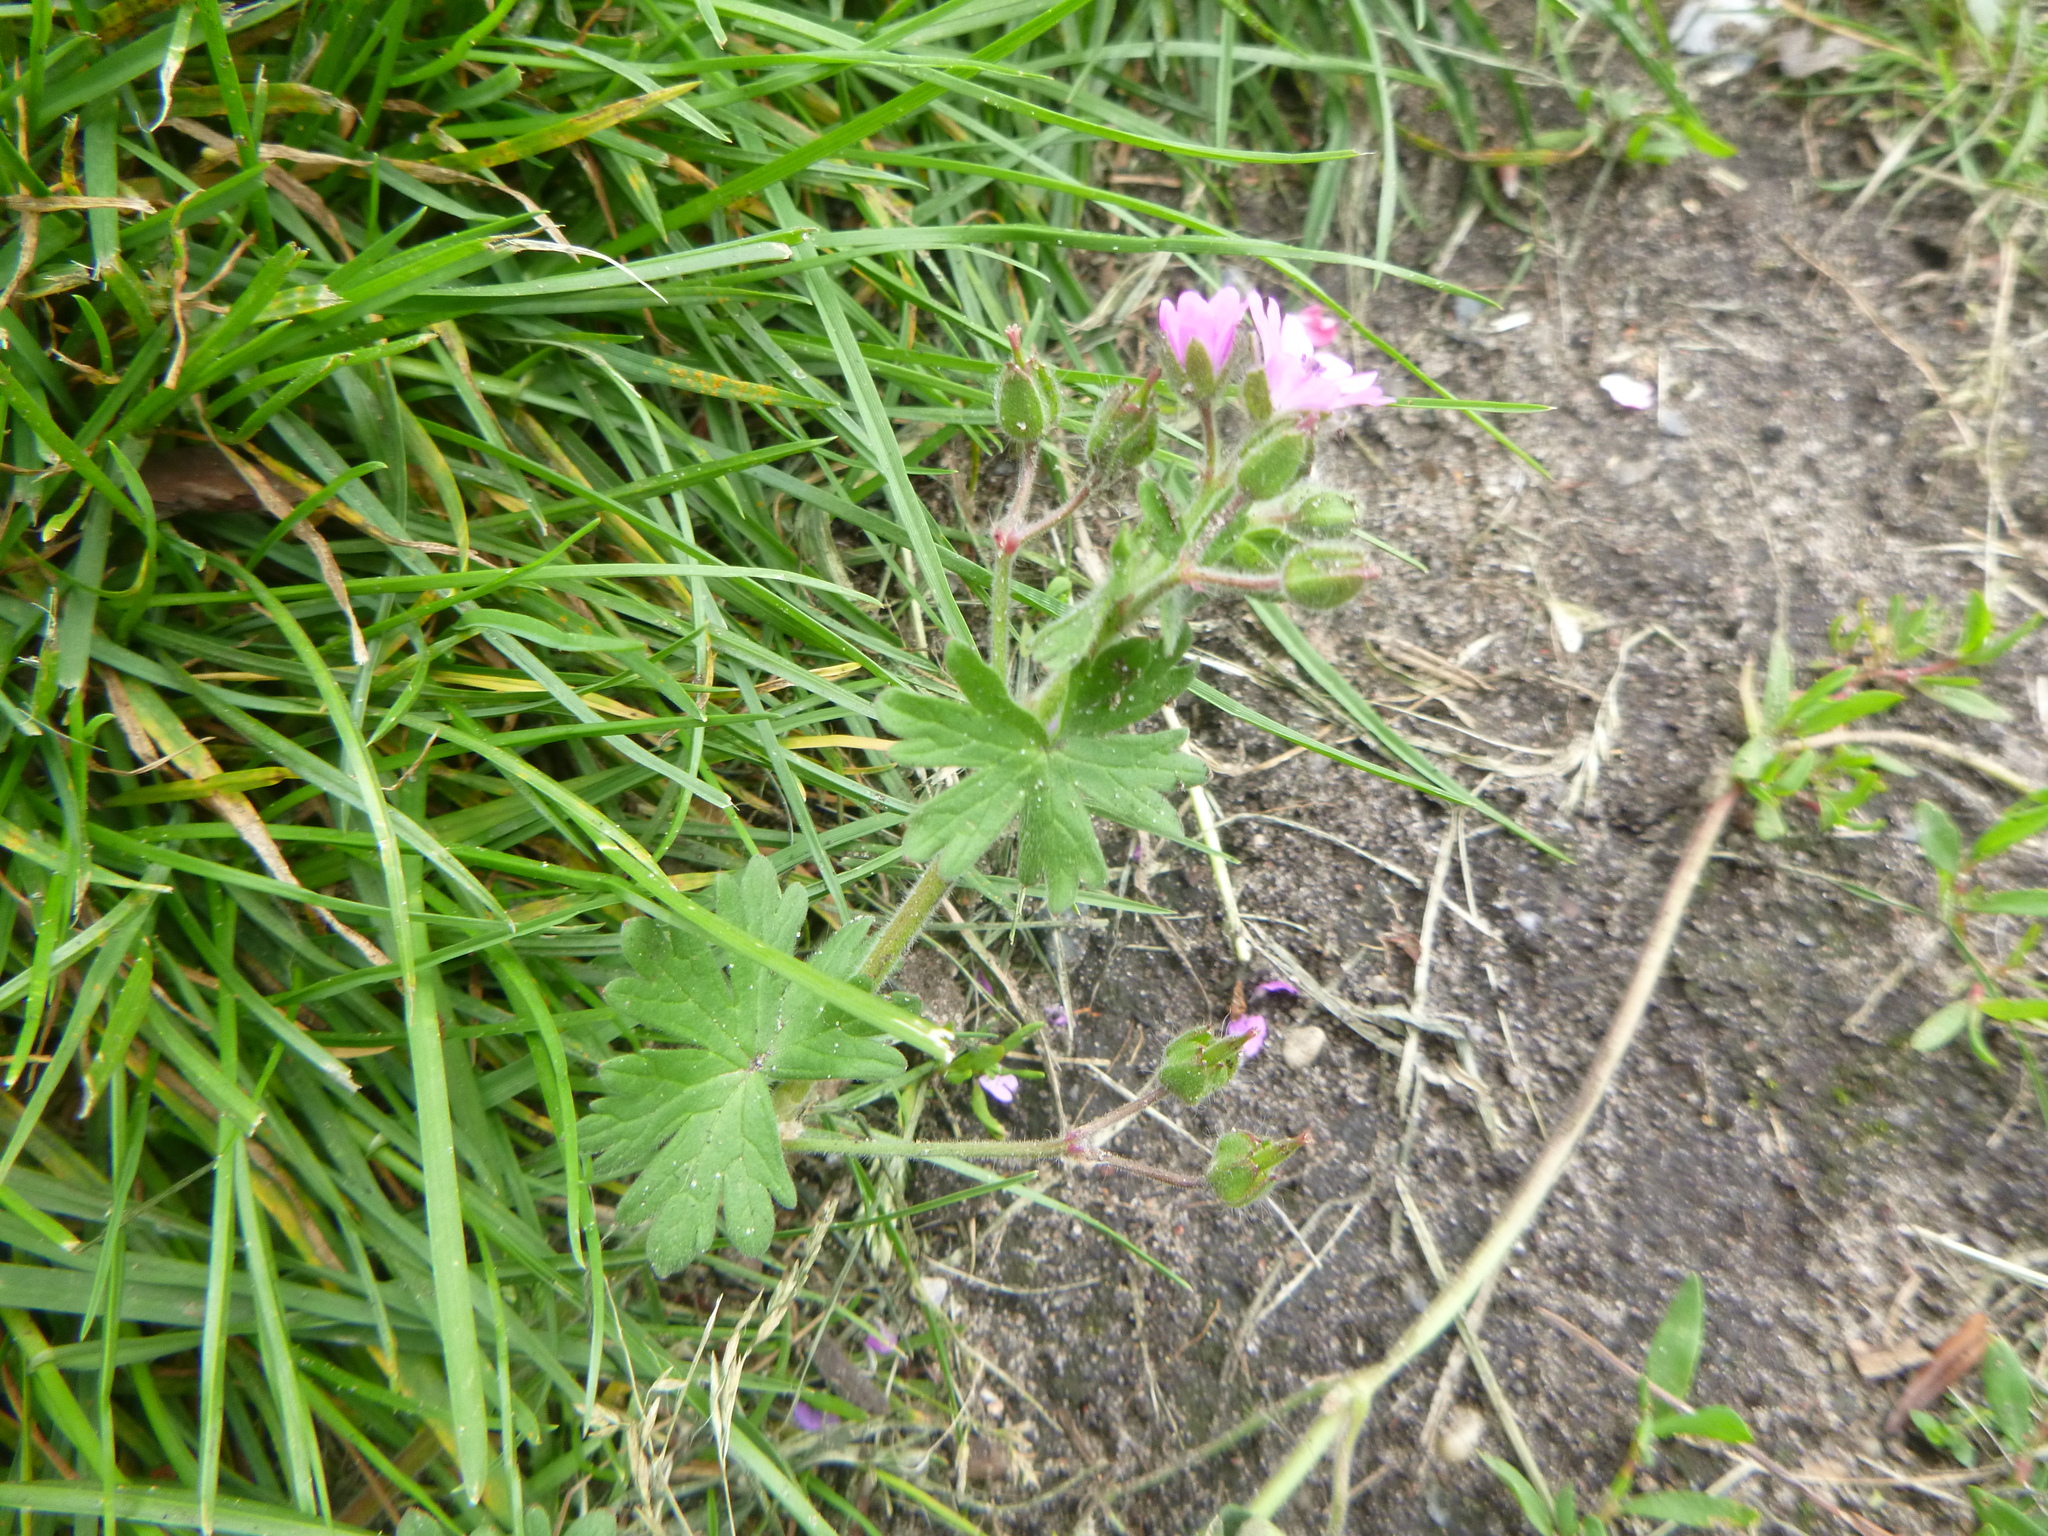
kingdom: Plantae
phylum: Tracheophyta
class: Magnoliopsida
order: Geraniales
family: Geraniaceae
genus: Geranium
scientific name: Geranium molle
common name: Dove's-foot crane's-bill
